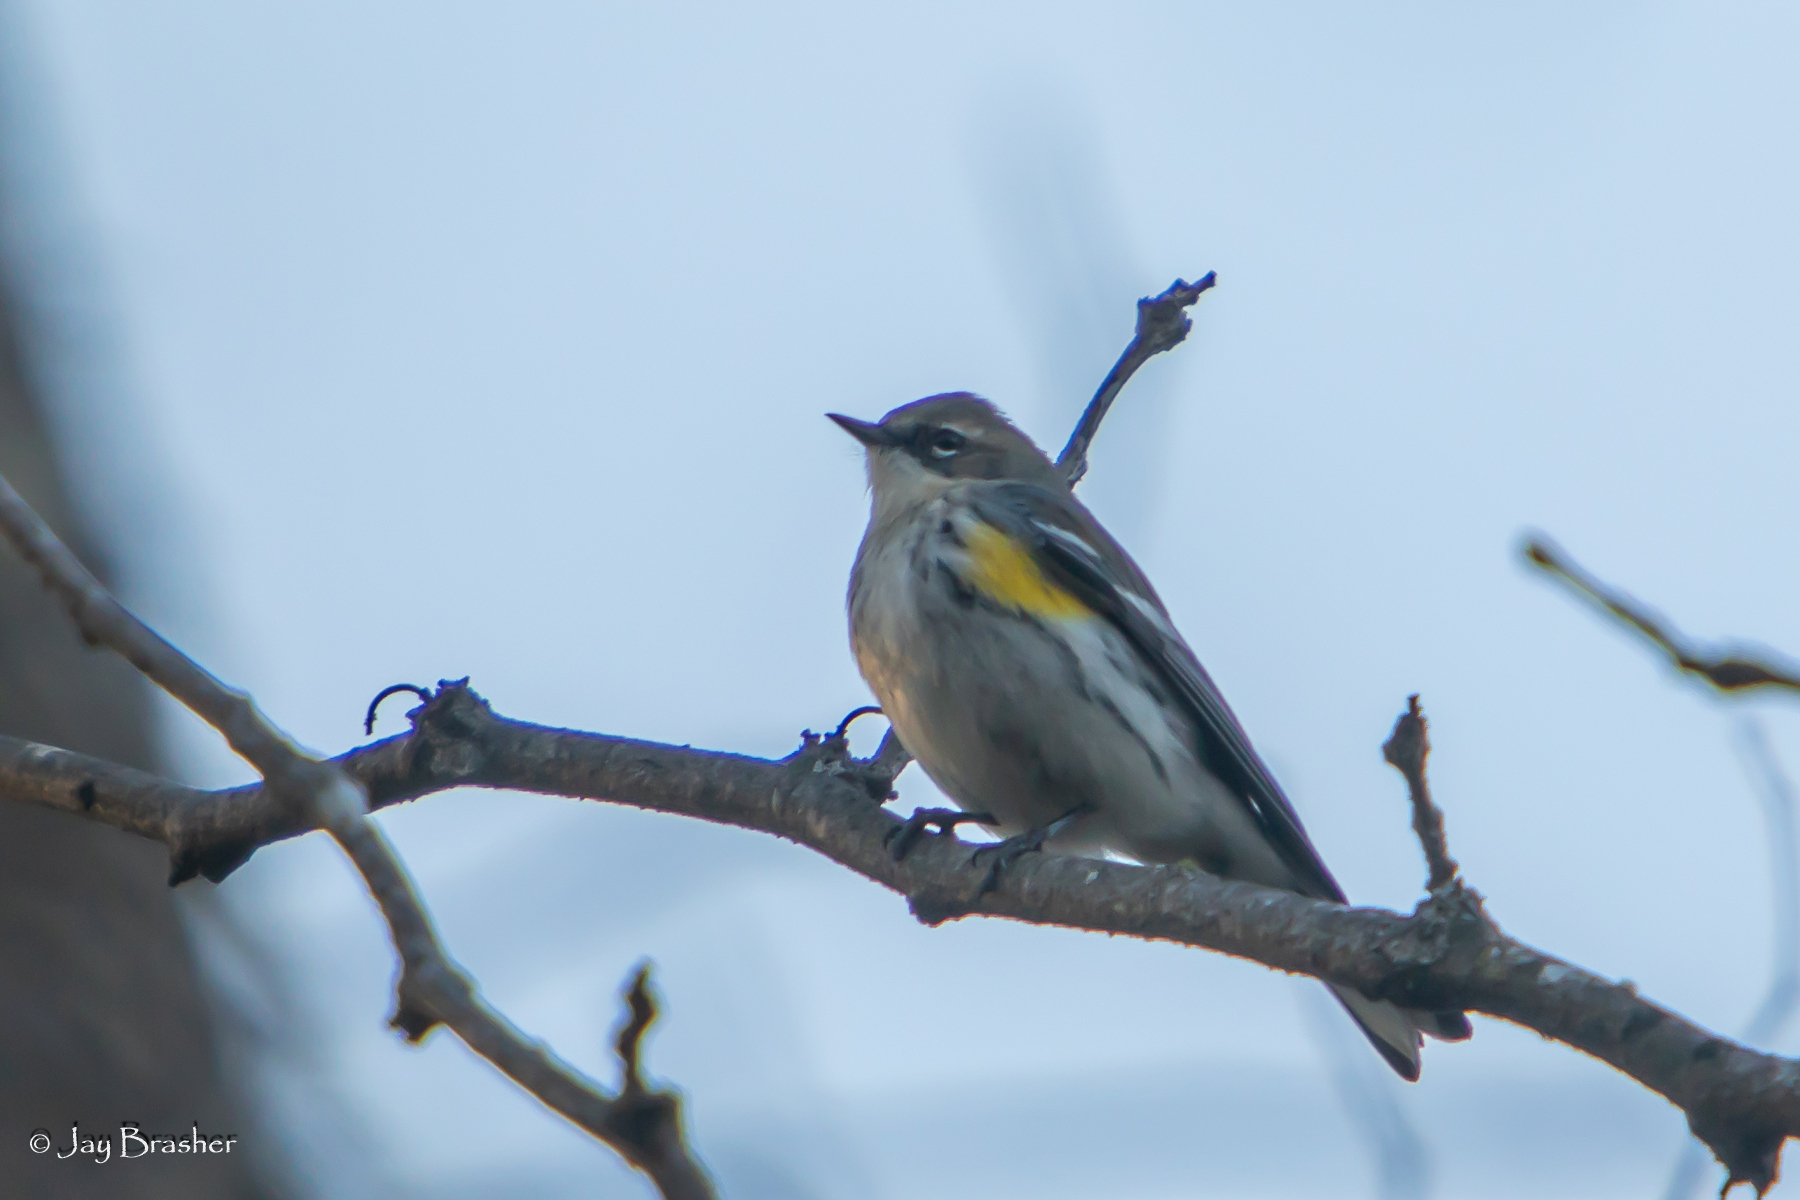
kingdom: Animalia
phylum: Chordata
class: Aves
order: Passeriformes
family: Parulidae
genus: Setophaga
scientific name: Setophaga coronata
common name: Myrtle warbler
